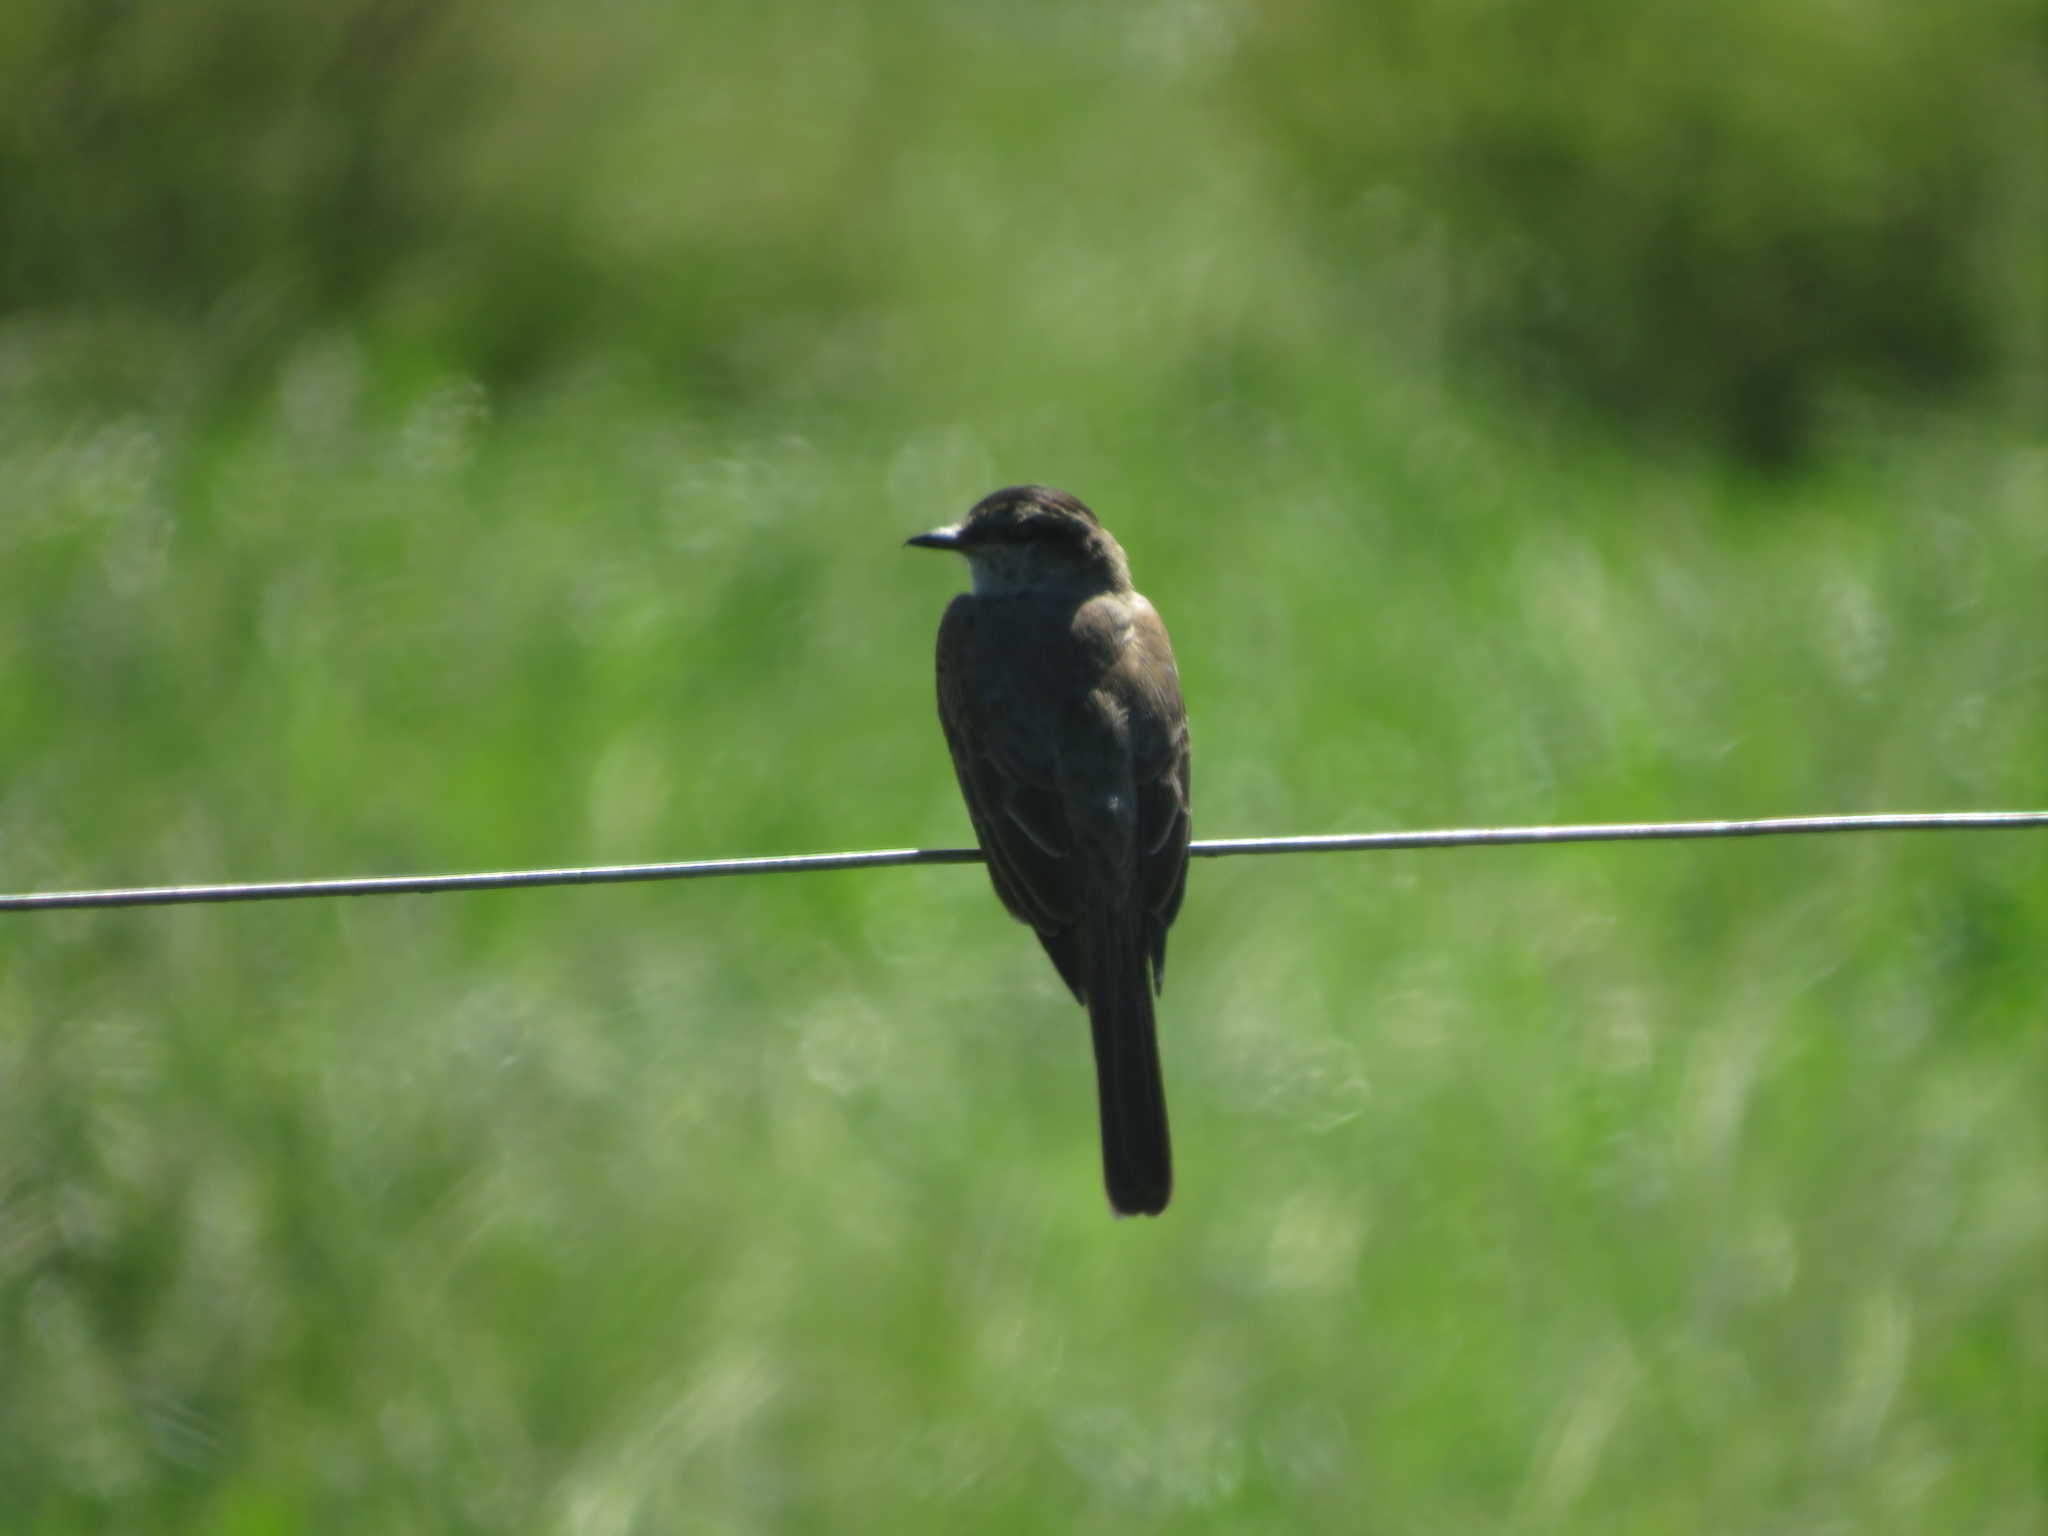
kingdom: Animalia
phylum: Chordata
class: Aves
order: Passeriformes
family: Tyrannidae
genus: Empidonomus
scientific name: Empidonomus aurantioatrocristatus
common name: Crowned slaty flycatcher
